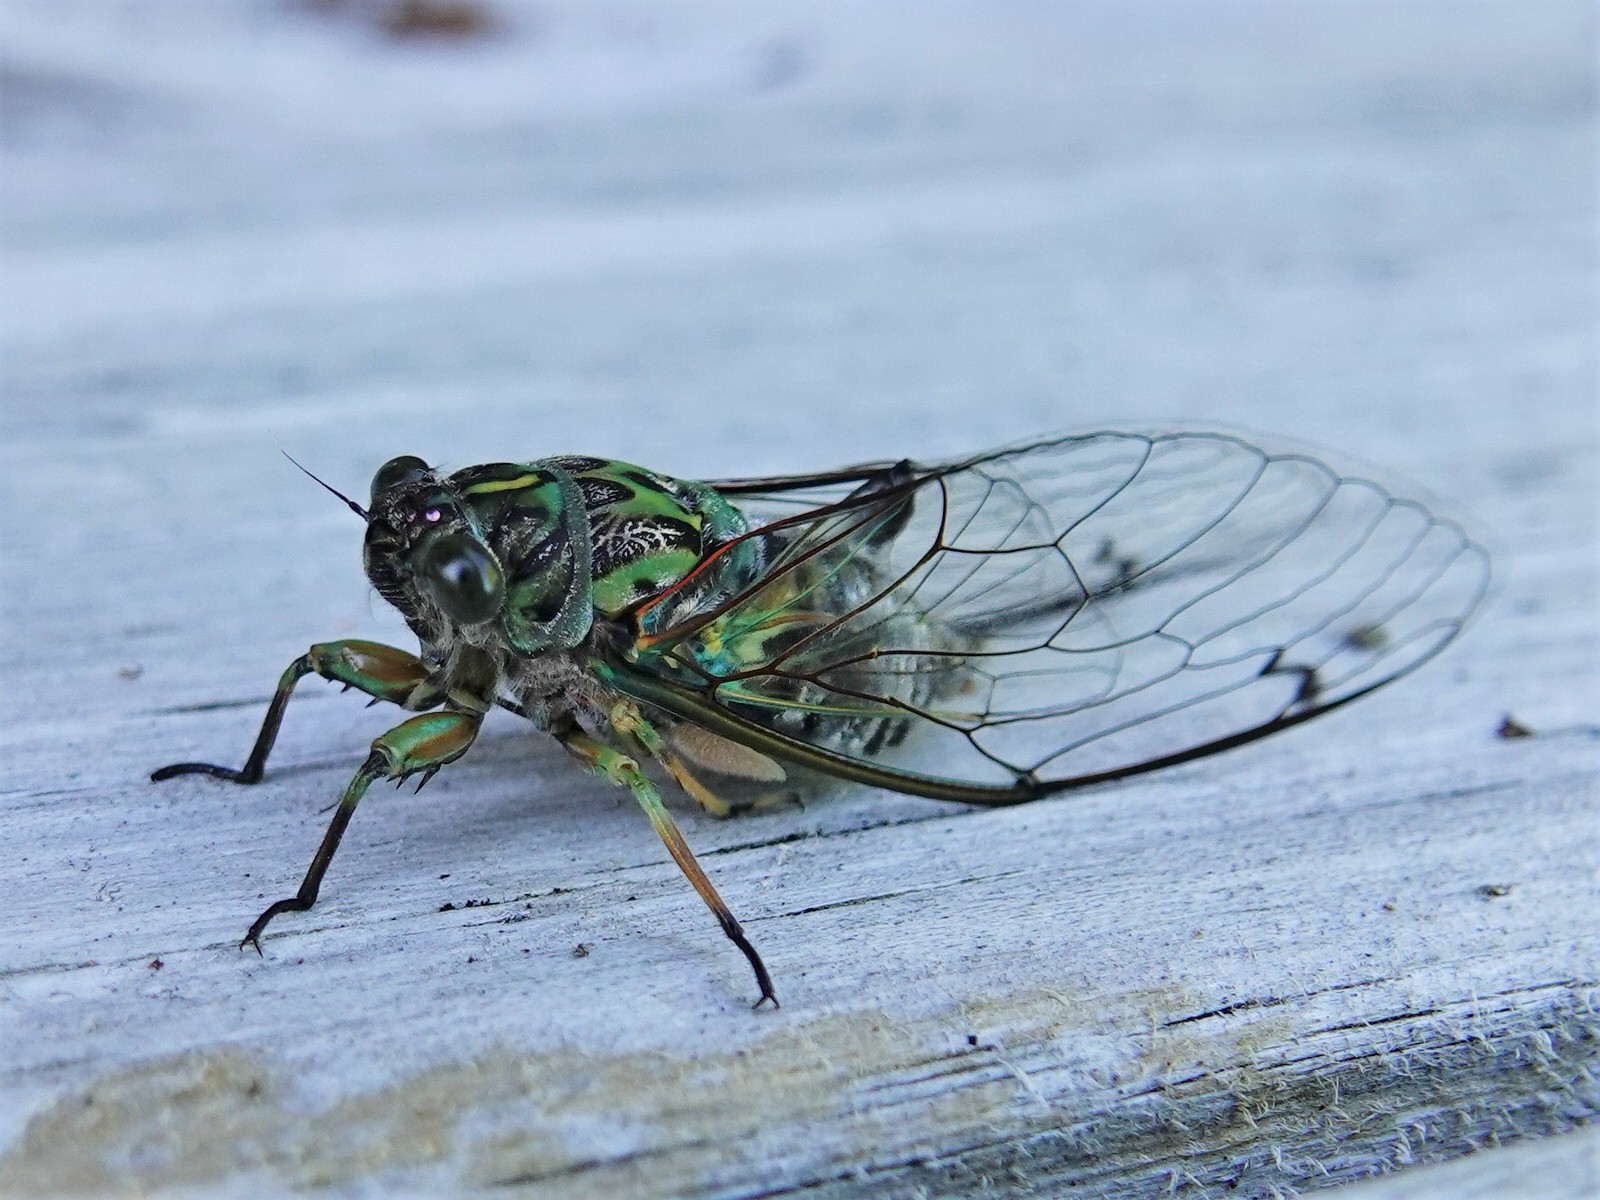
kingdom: Animalia
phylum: Arthropoda
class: Insecta
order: Hemiptera
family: Cicadidae
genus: Amphipsalta
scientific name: Amphipsalta zelandica
